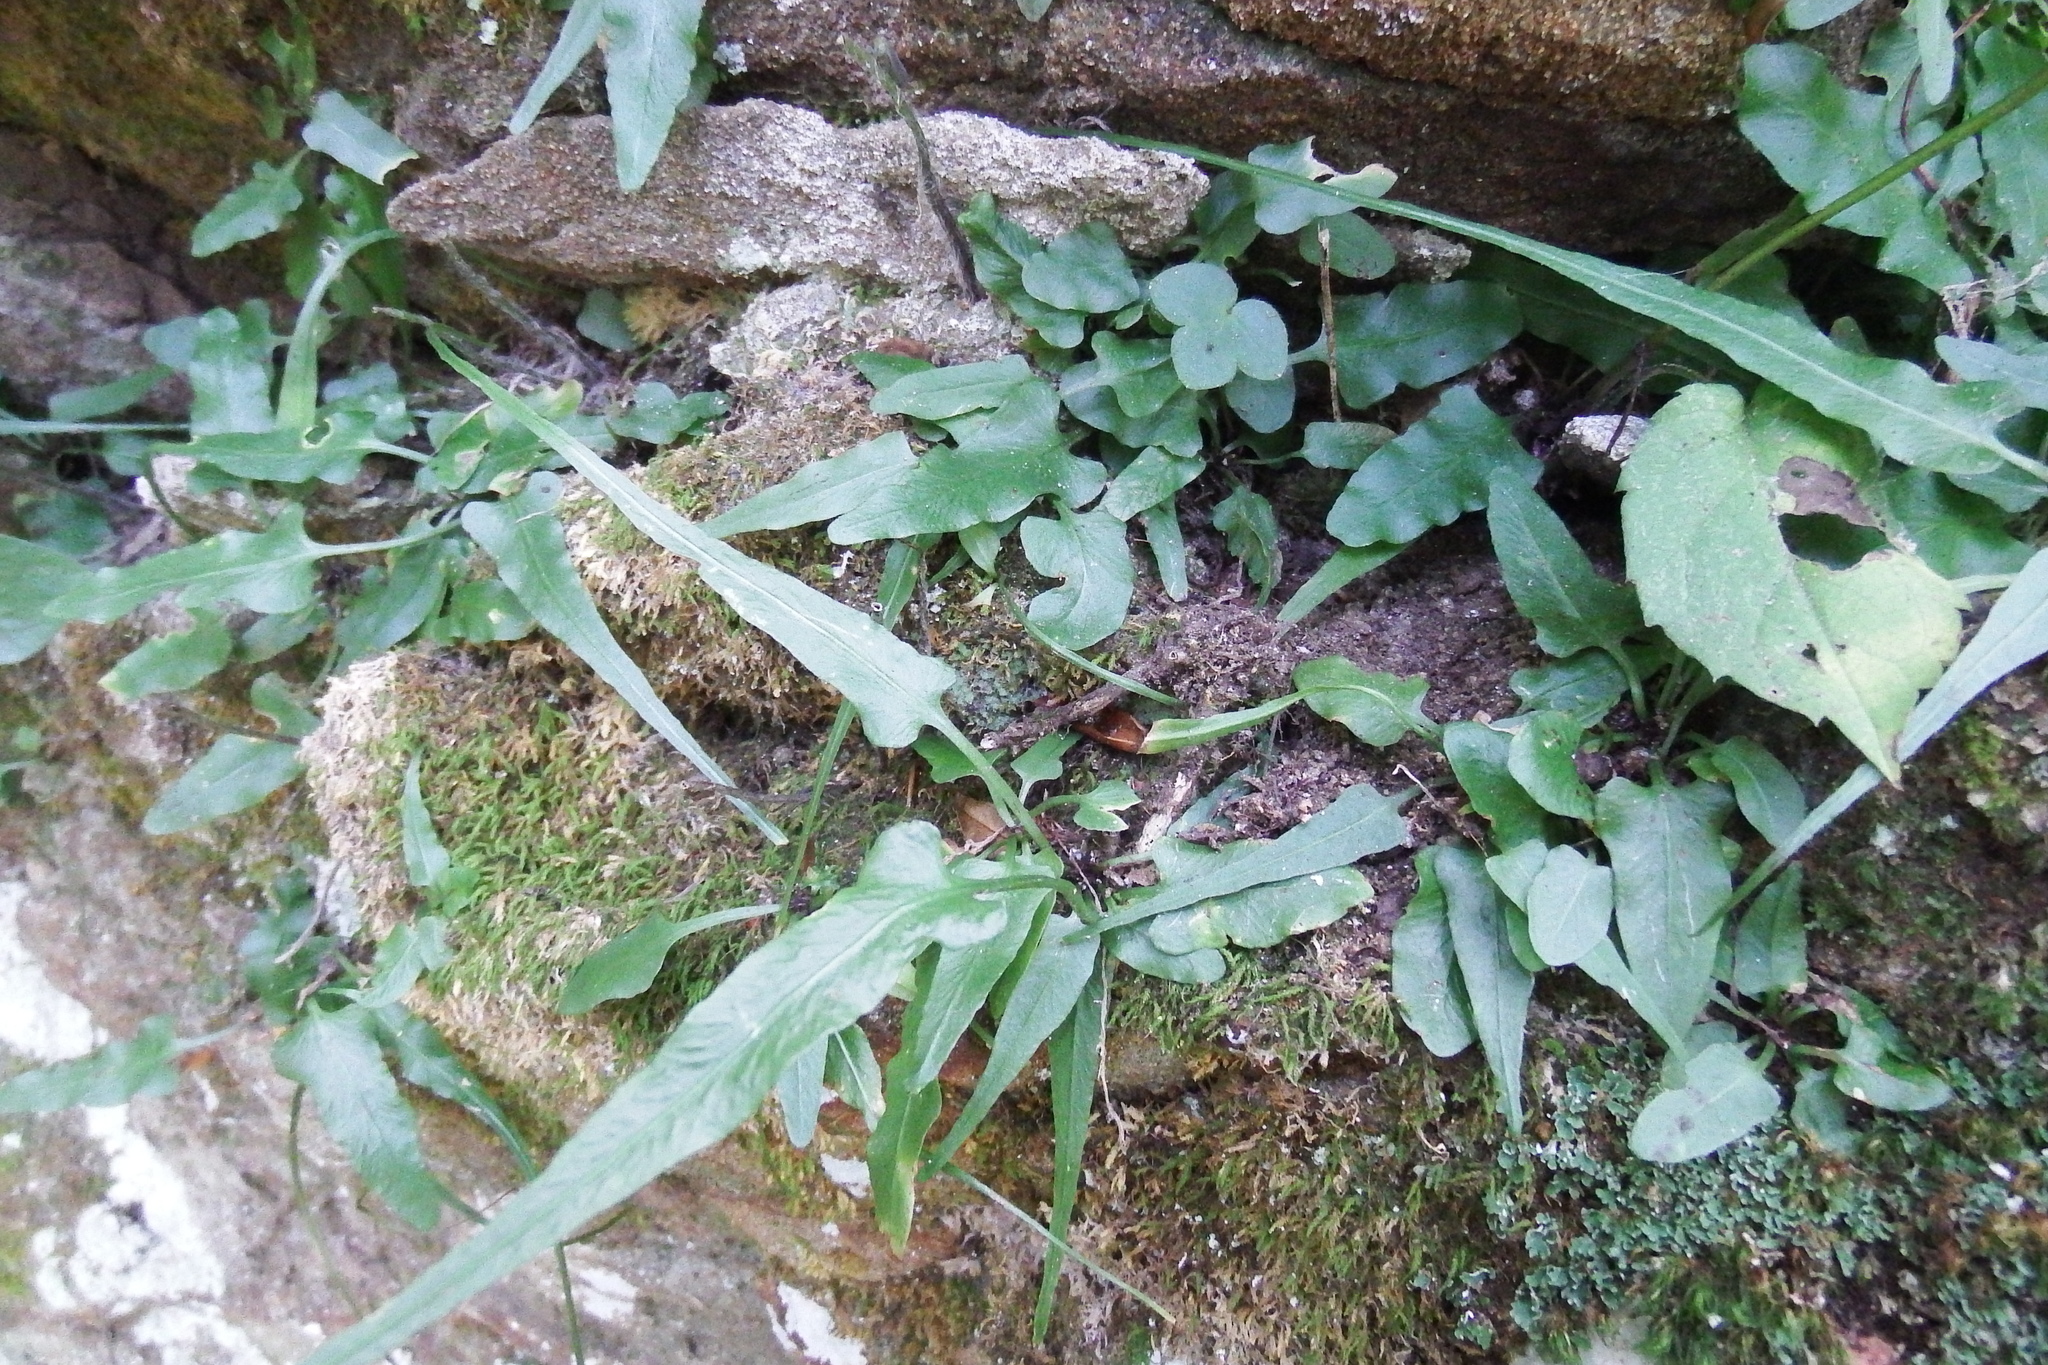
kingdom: Plantae
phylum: Tracheophyta
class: Polypodiopsida
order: Polypodiales
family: Aspleniaceae
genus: Asplenium
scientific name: Asplenium rhizophyllum
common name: Walking fern
